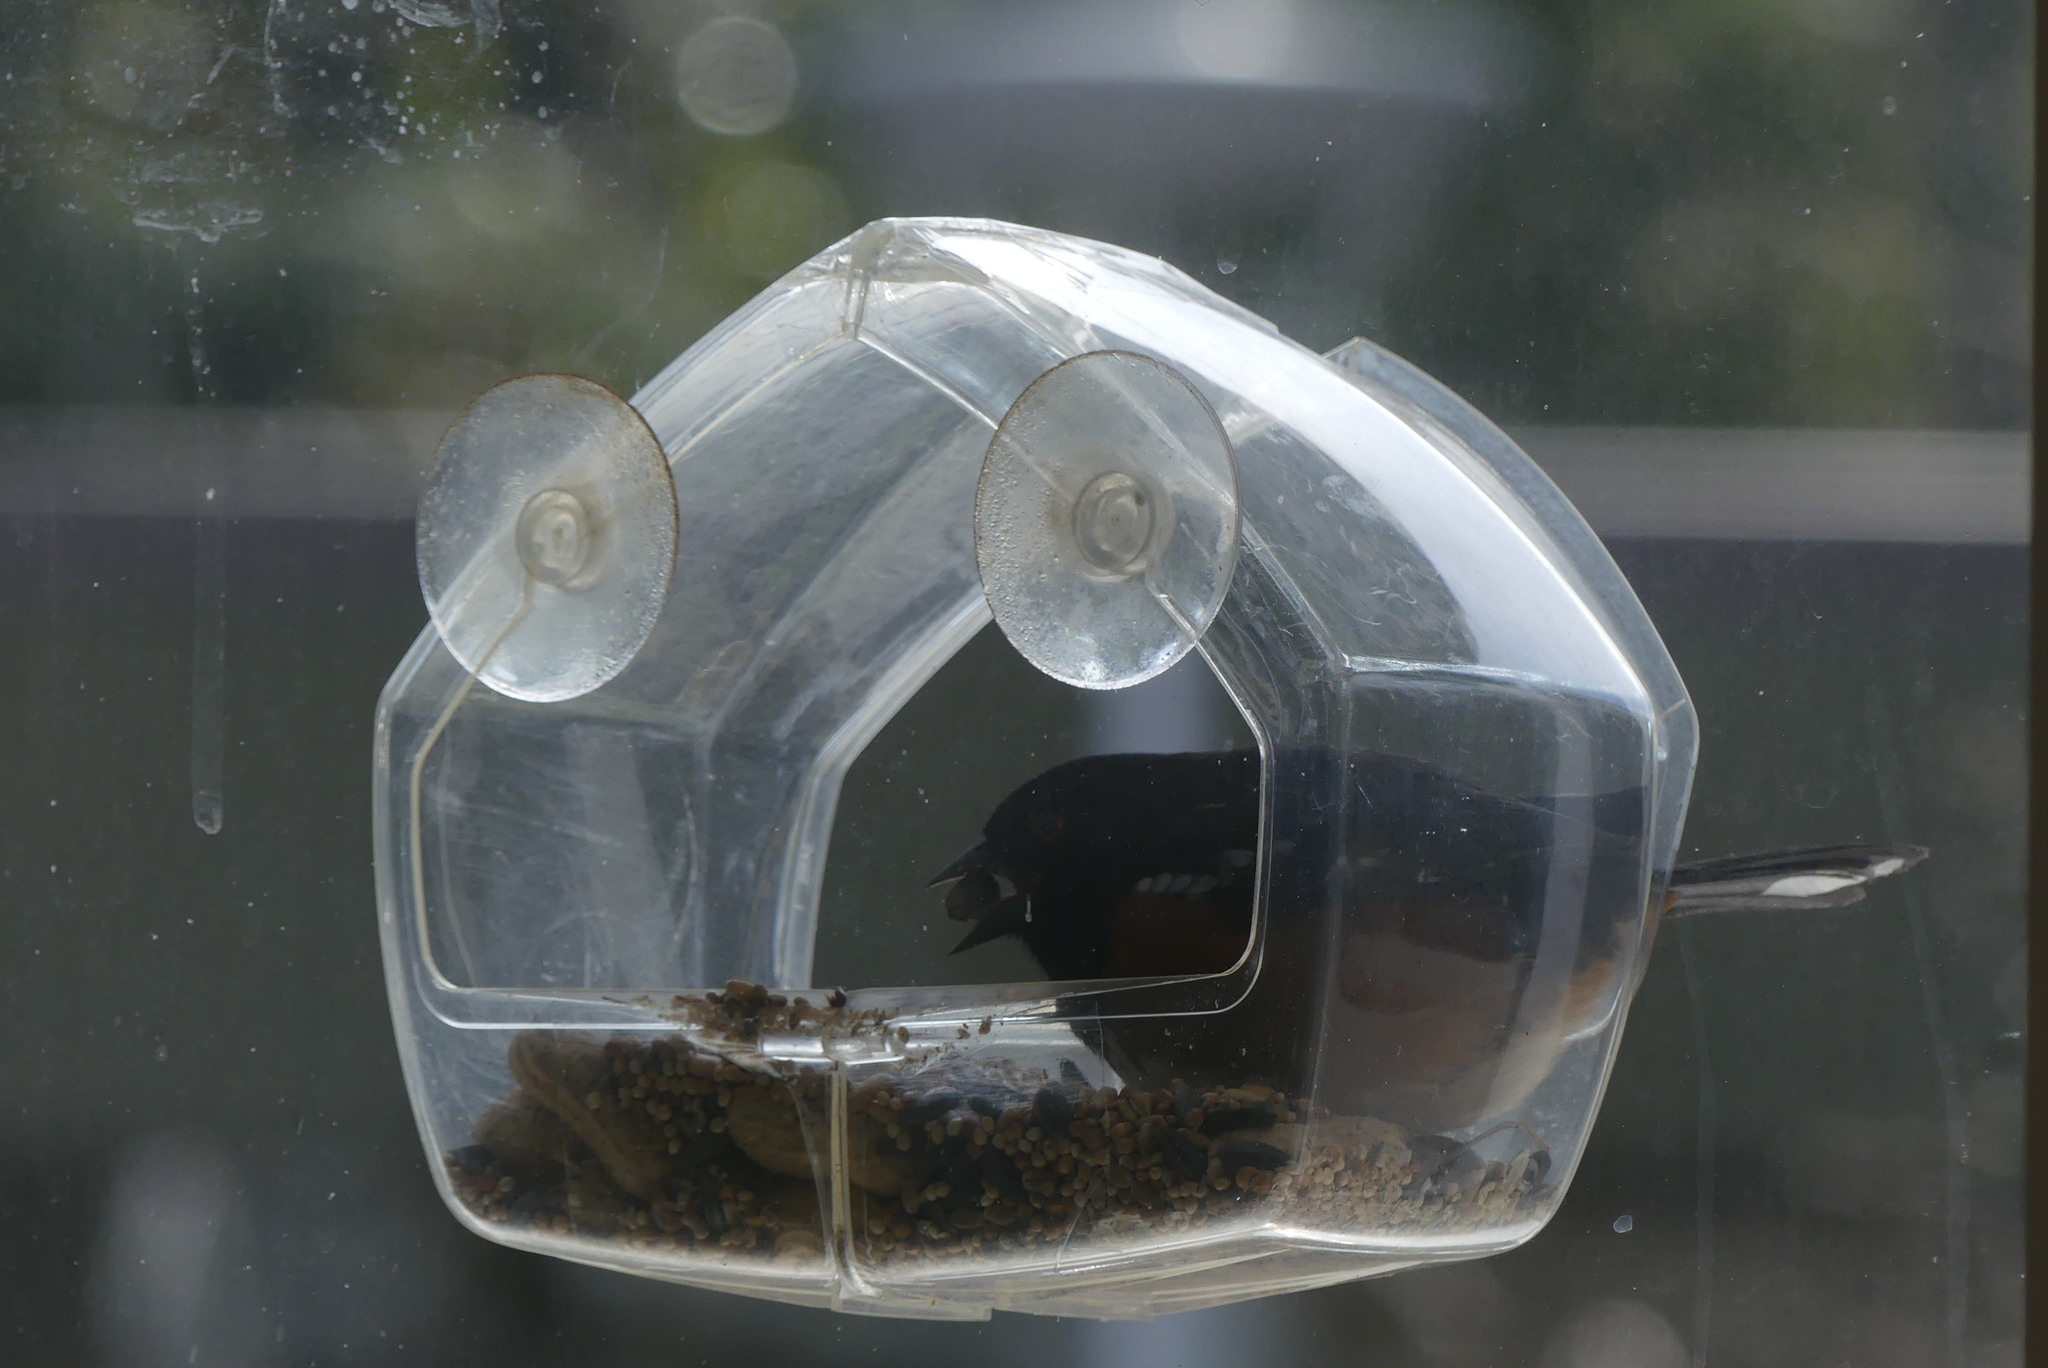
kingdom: Animalia
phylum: Chordata
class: Aves
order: Passeriformes
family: Passerellidae
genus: Pipilo
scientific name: Pipilo maculatus
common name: Spotted towhee
